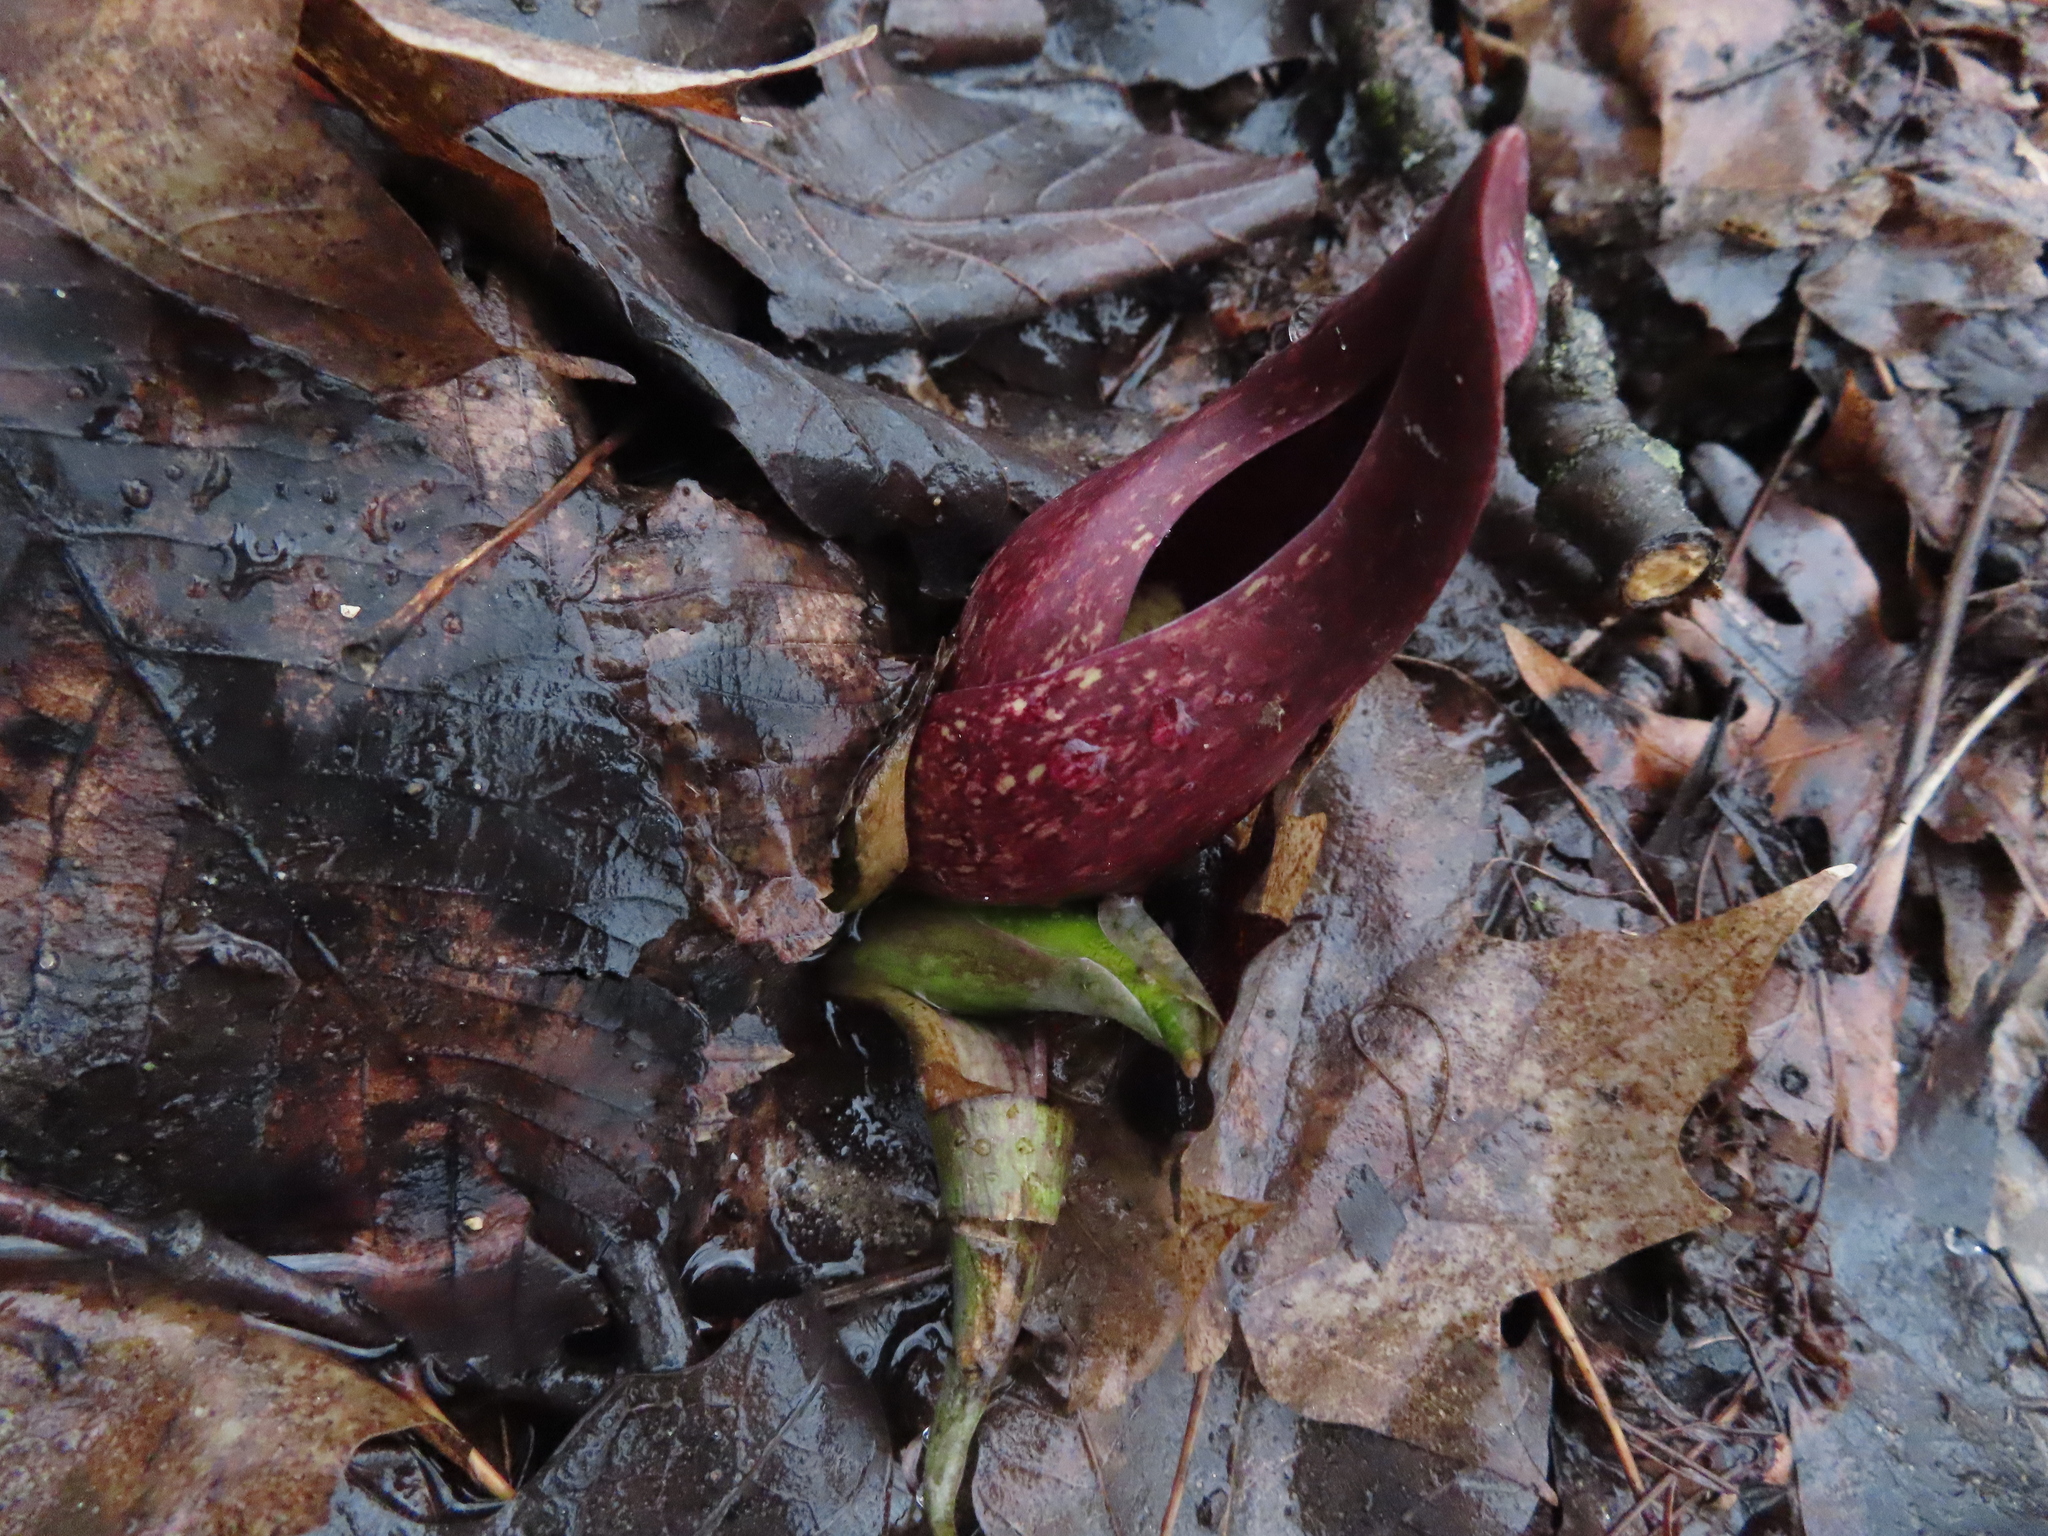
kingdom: Plantae
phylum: Tracheophyta
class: Liliopsida
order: Alismatales
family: Araceae
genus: Symplocarpus
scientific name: Symplocarpus foetidus
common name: Eastern skunk cabbage
